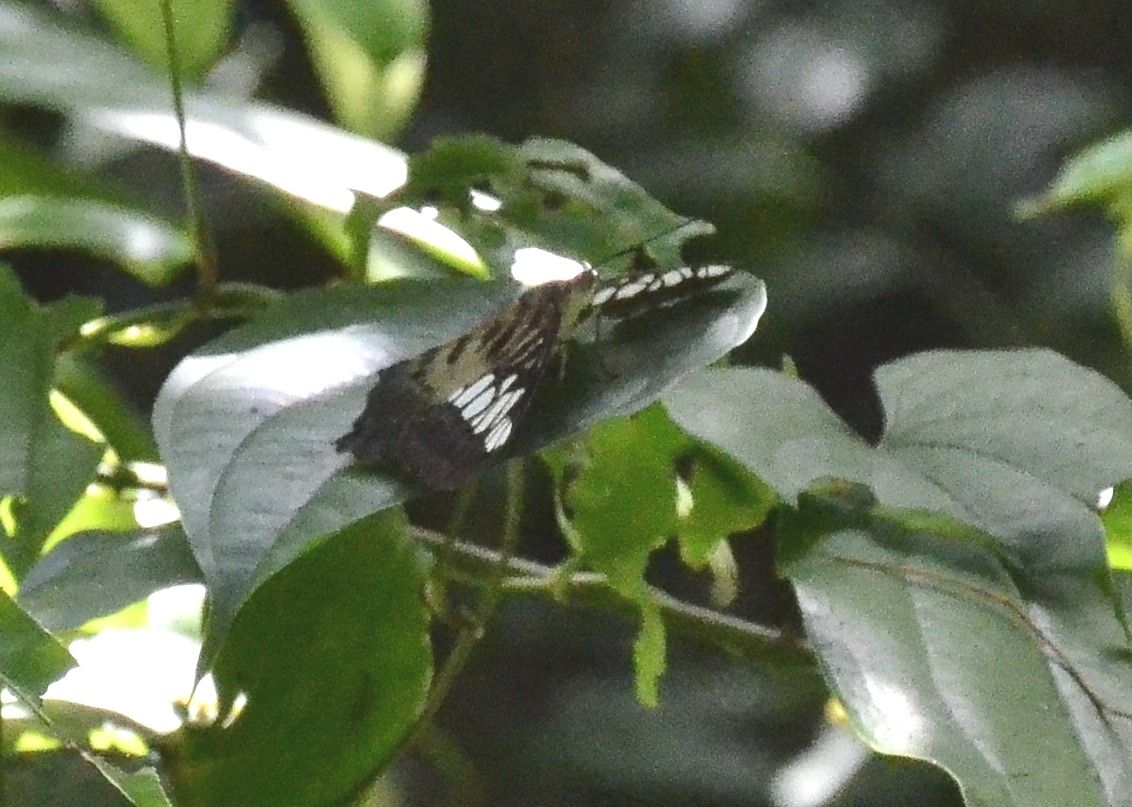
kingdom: Animalia
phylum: Arthropoda
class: Insecta
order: Lepidoptera
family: Nymphalidae
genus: Kallima
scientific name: Kallima sylvia
